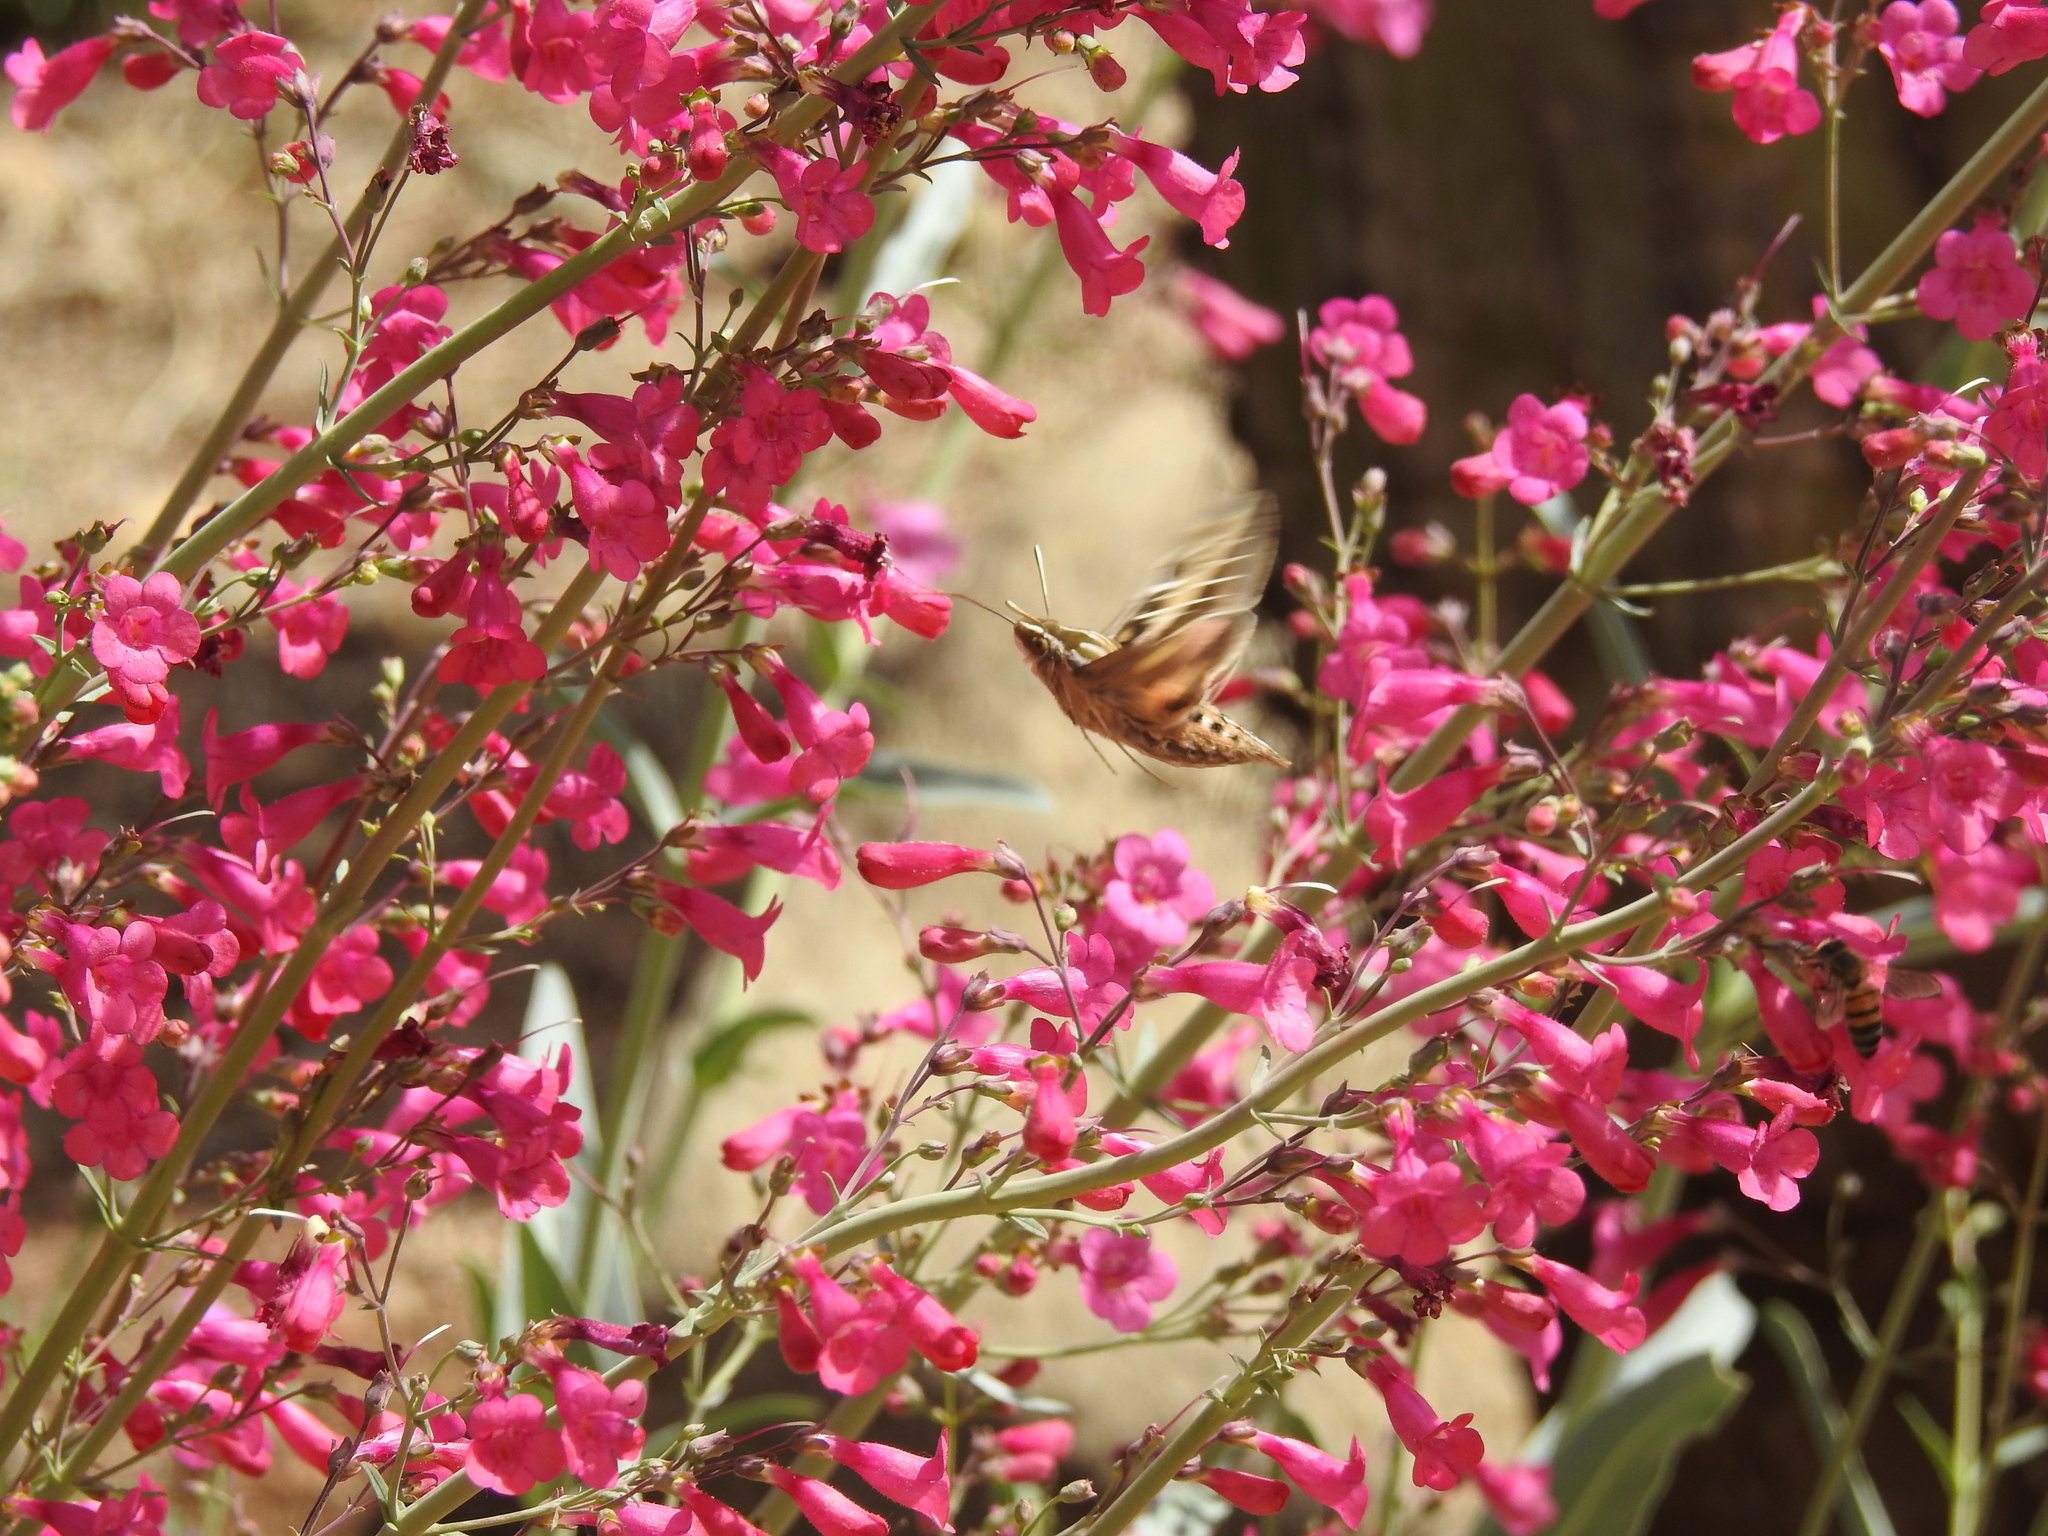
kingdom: Animalia
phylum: Arthropoda
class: Insecta
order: Lepidoptera
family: Sphingidae
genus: Hyles
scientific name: Hyles lineata
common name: White-lined sphinx
